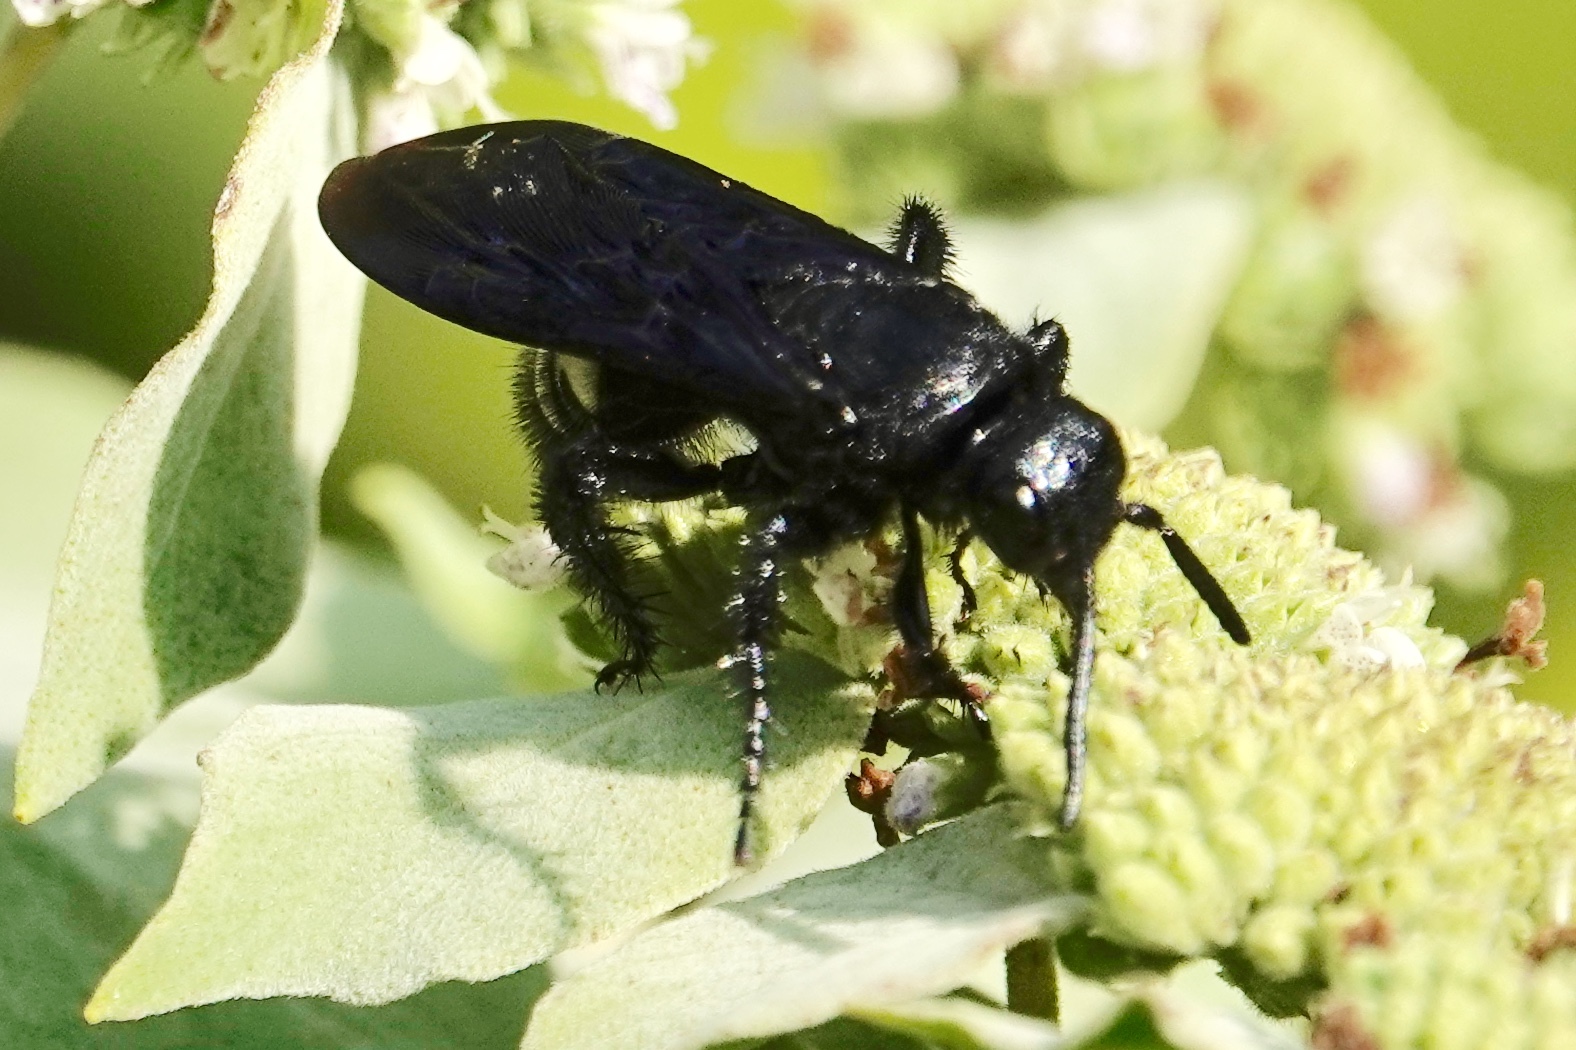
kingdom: Animalia
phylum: Arthropoda
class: Insecta
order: Hymenoptera
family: Scoliidae
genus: Scolia
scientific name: Scolia bicincta
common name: Double-banded scoliid wasp
